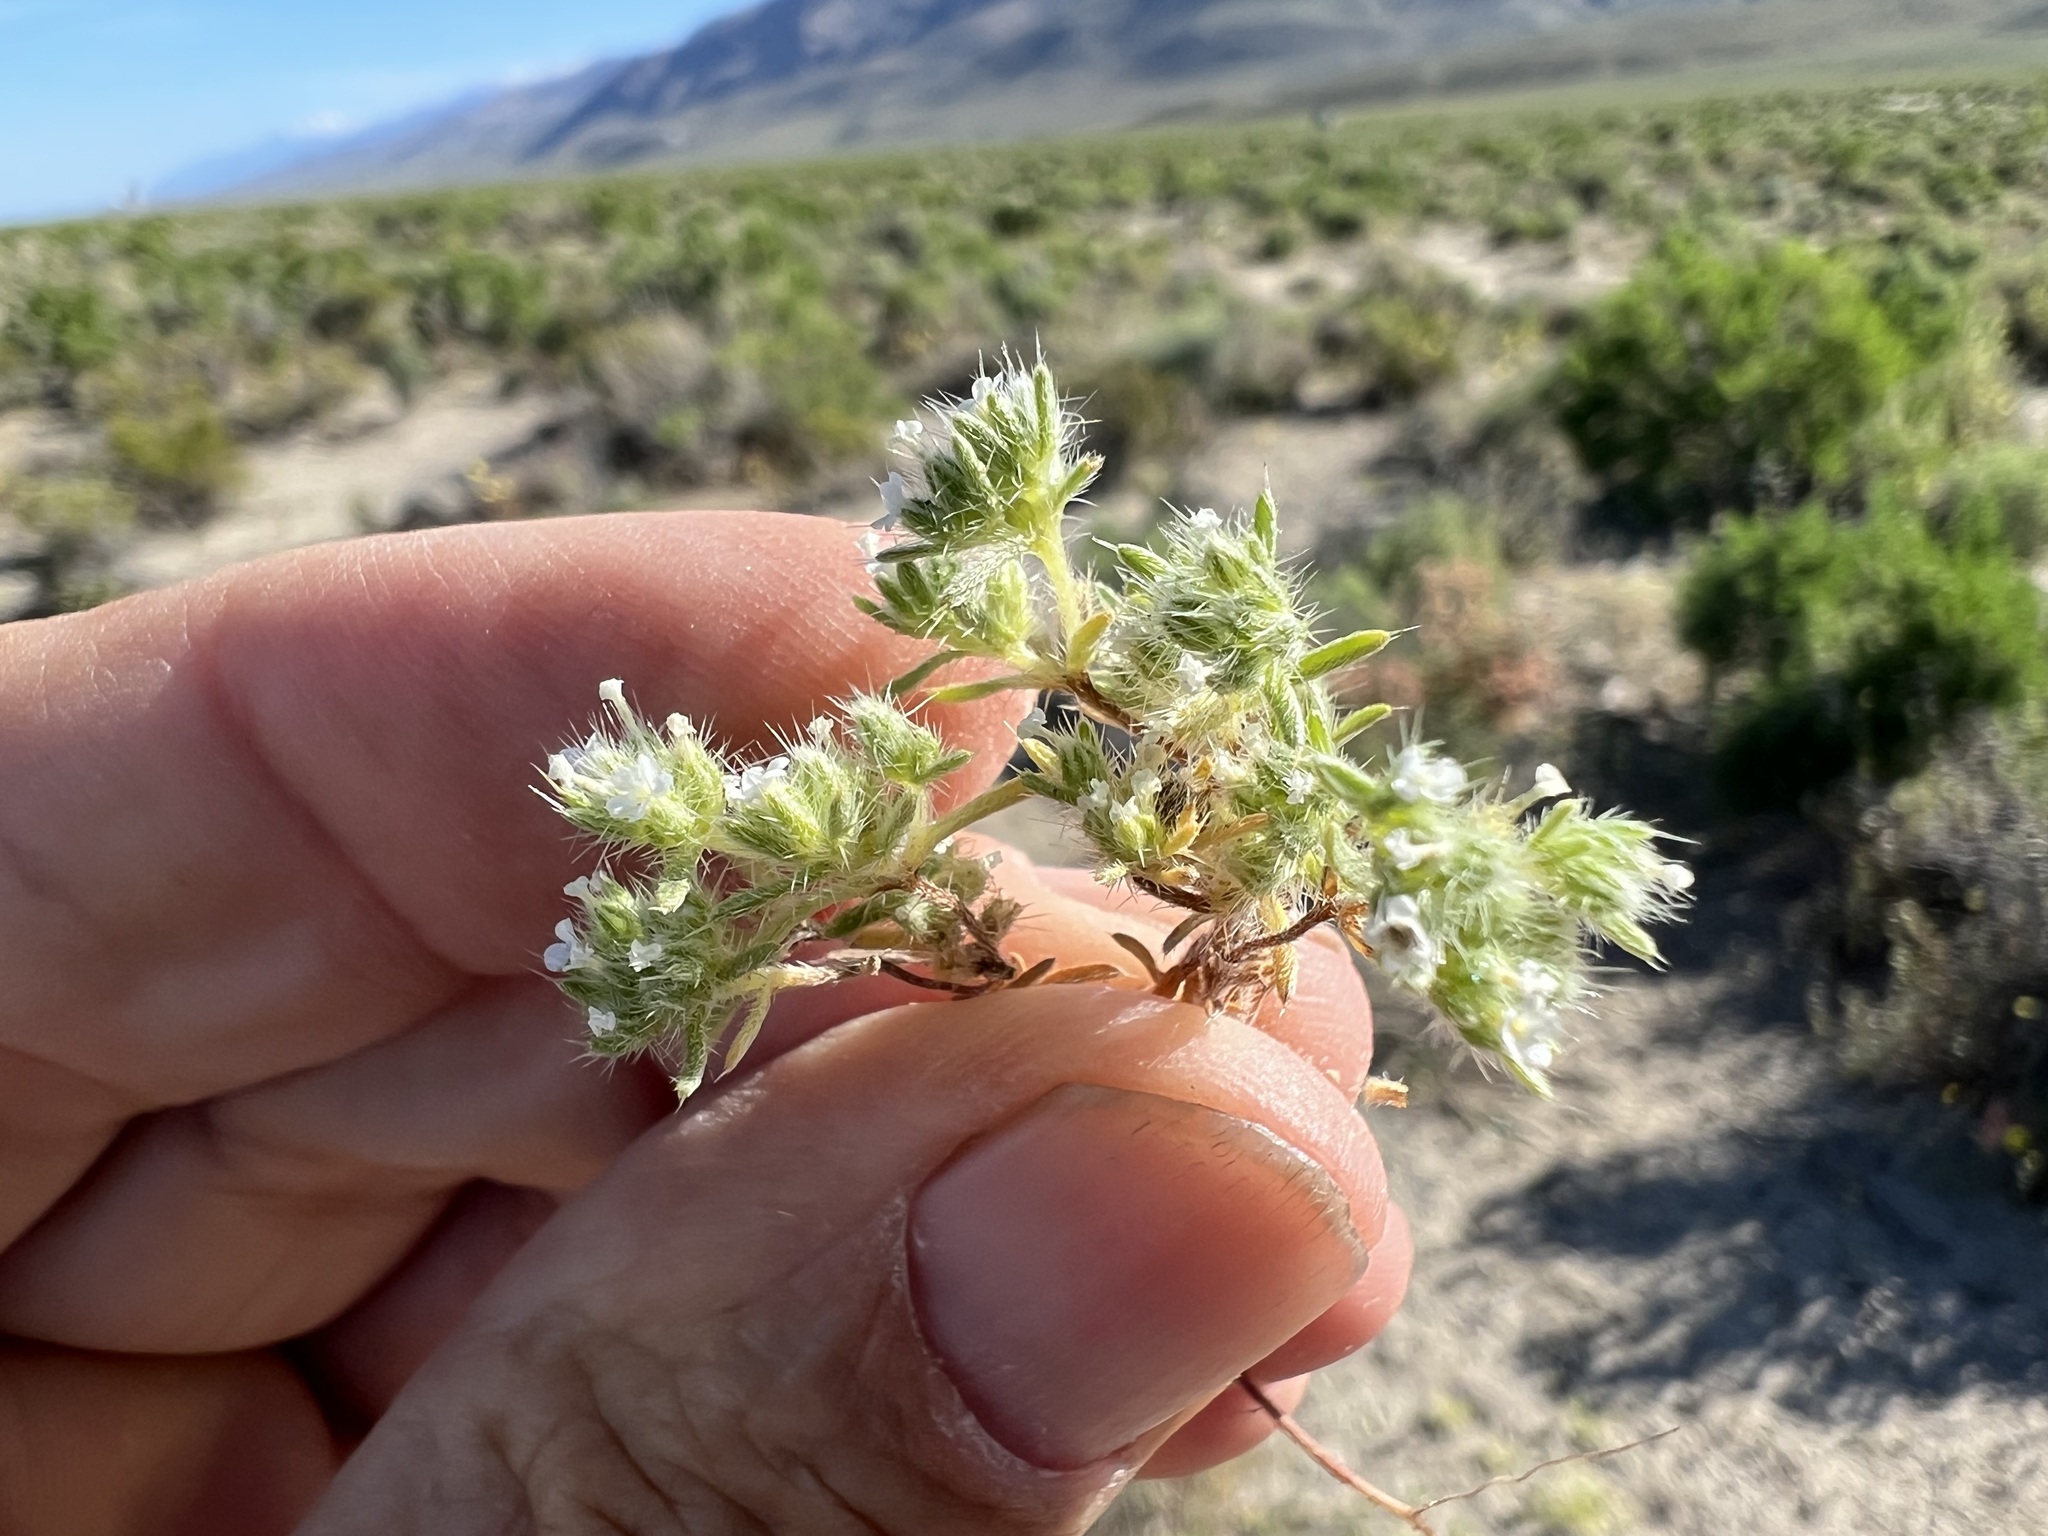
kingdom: Plantae
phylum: Tracheophyta
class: Magnoliopsida
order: Boraginales
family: Boraginaceae
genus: Greeneocharis
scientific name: Greeneocharis circumscissa
